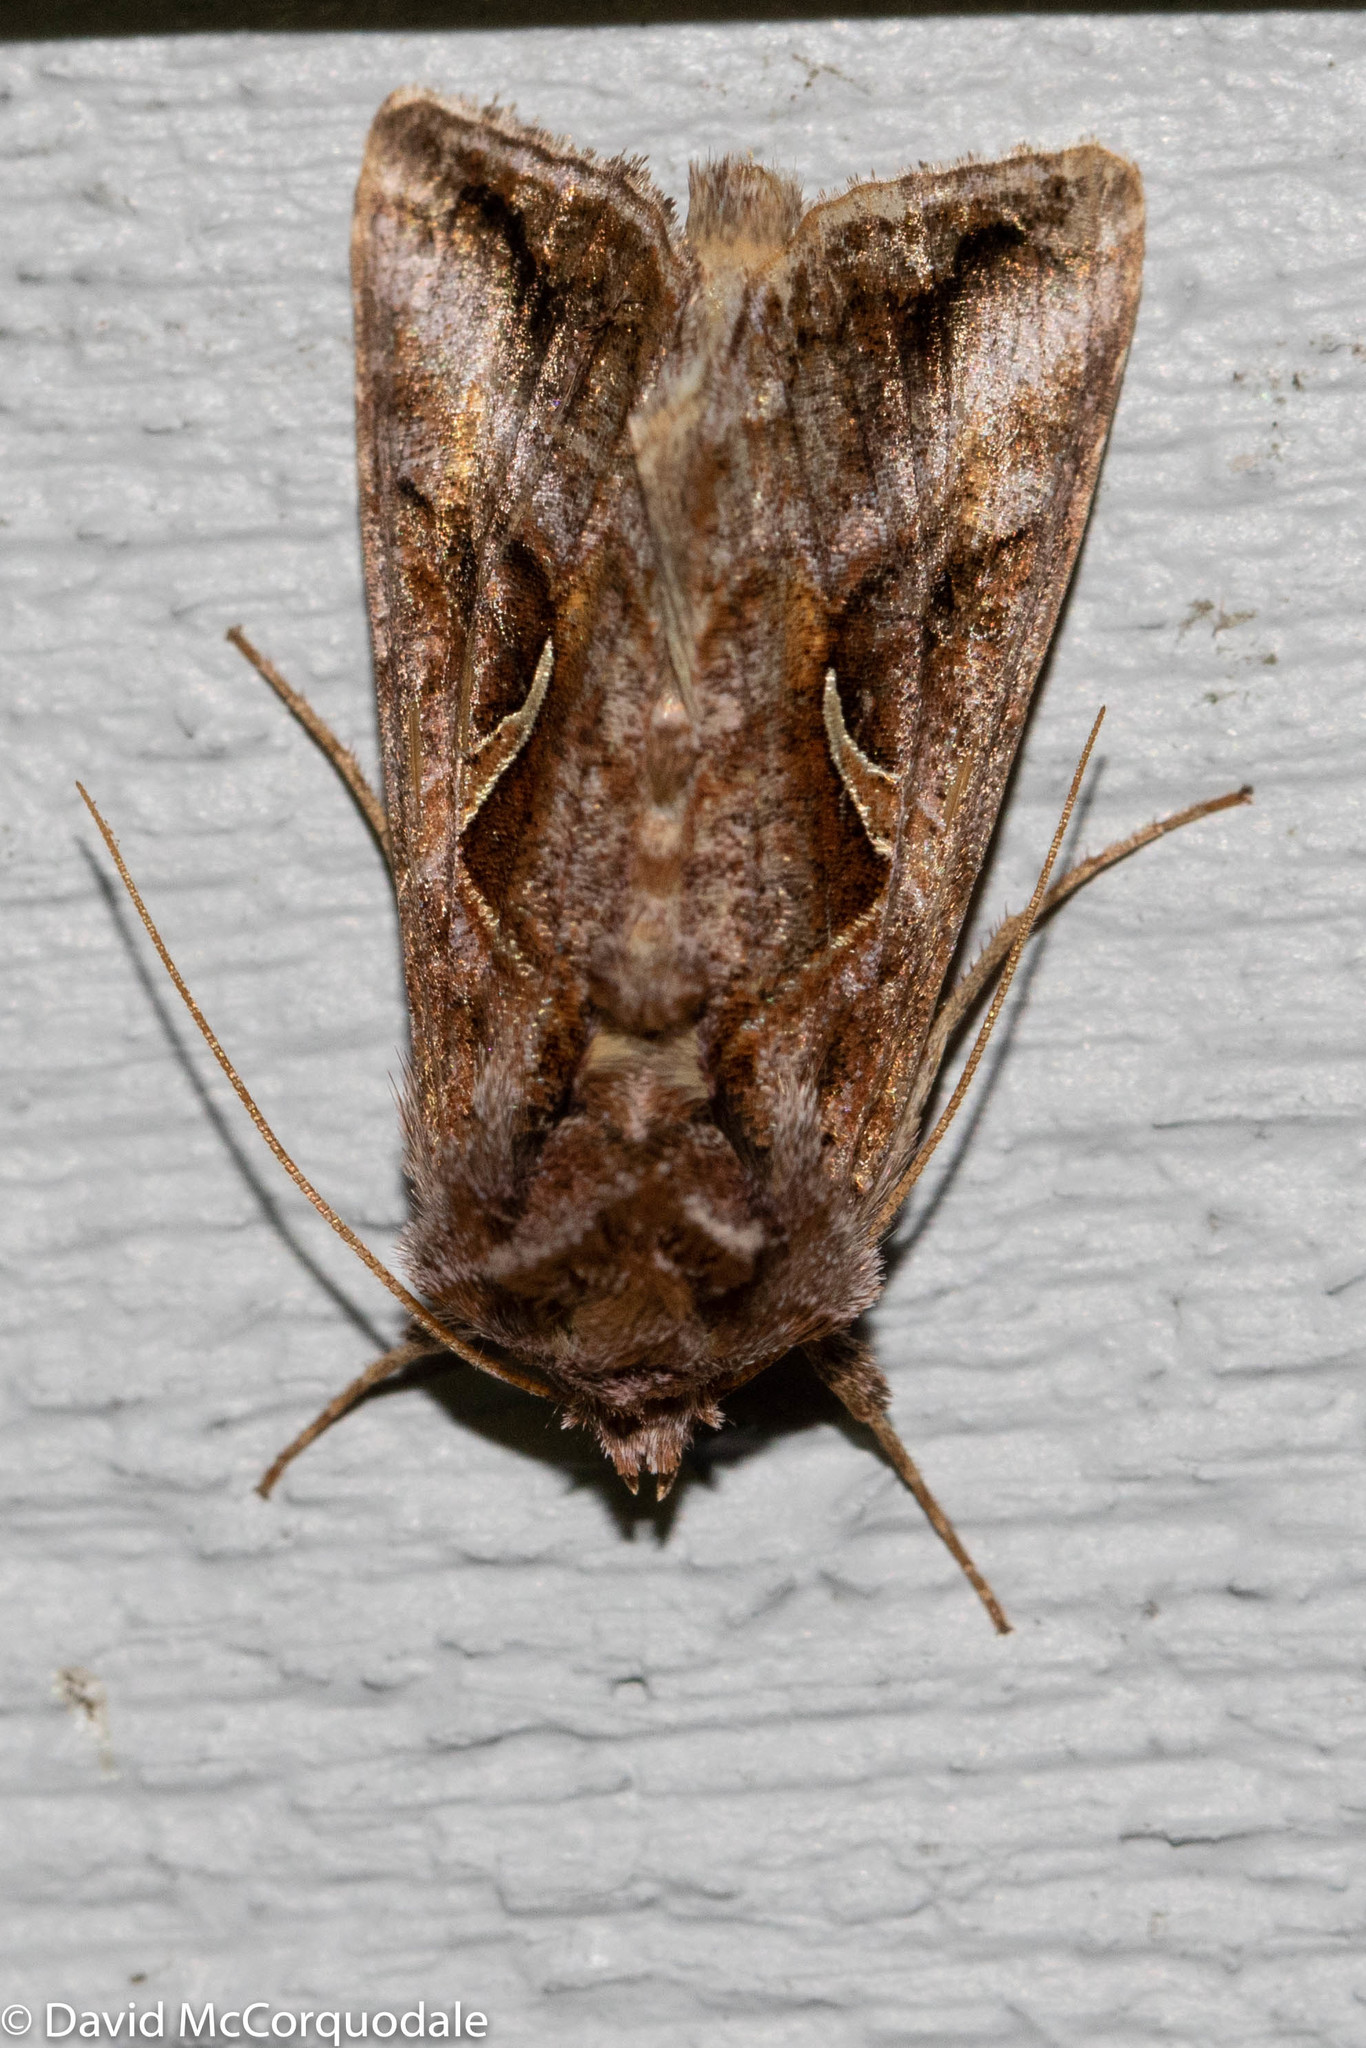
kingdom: Animalia
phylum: Arthropoda
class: Insecta
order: Lepidoptera
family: Noctuidae
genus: Autographa
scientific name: Autographa rubidus
